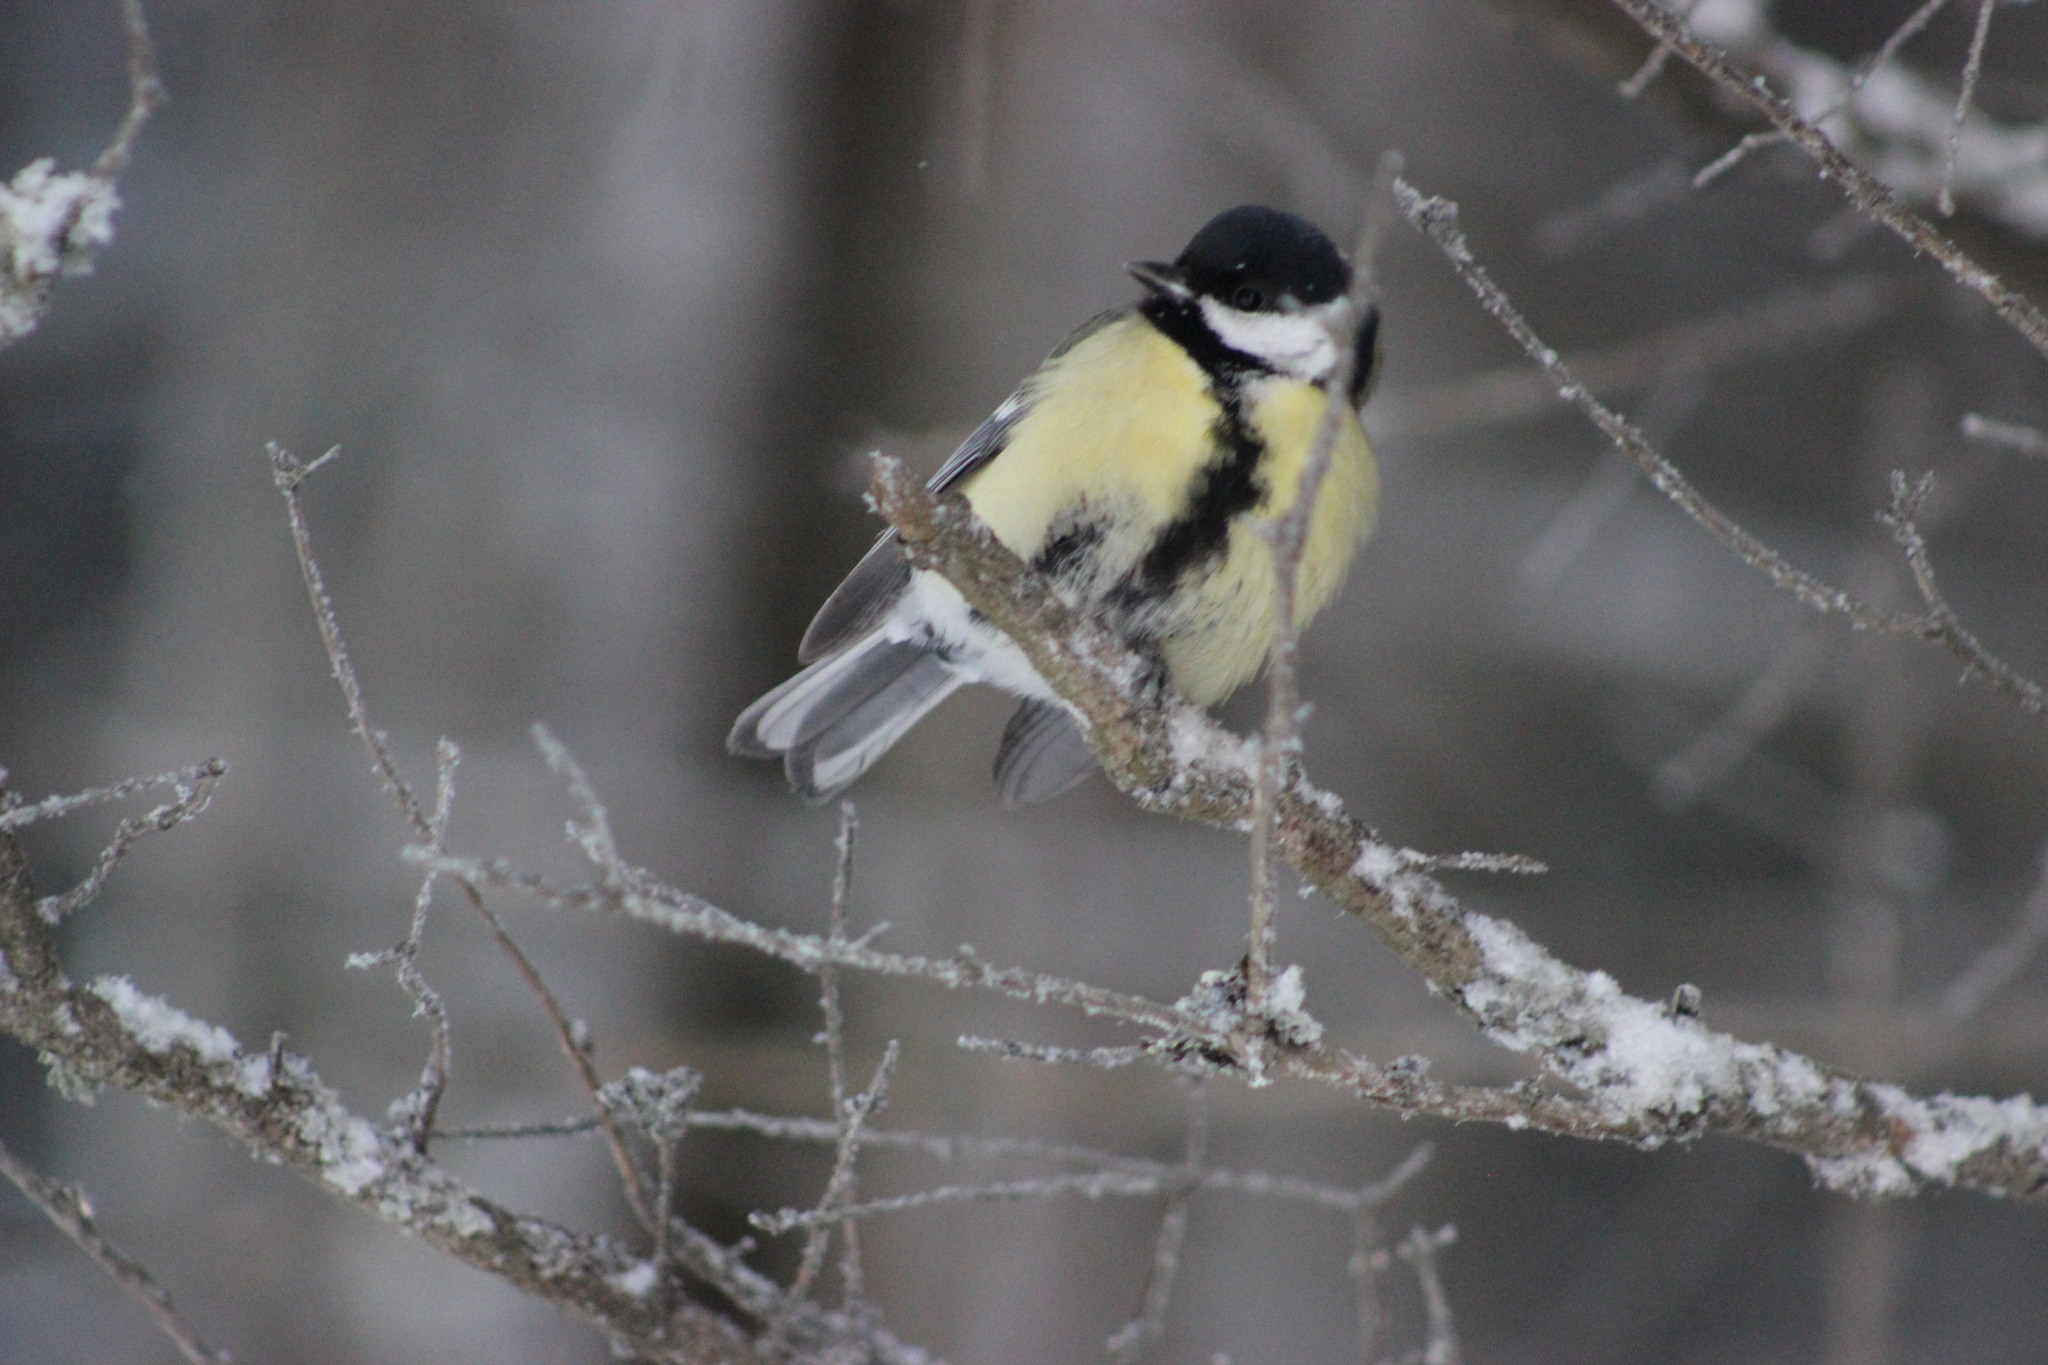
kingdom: Animalia
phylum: Chordata
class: Aves
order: Passeriformes
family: Paridae
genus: Parus
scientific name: Parus major
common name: Great tit
